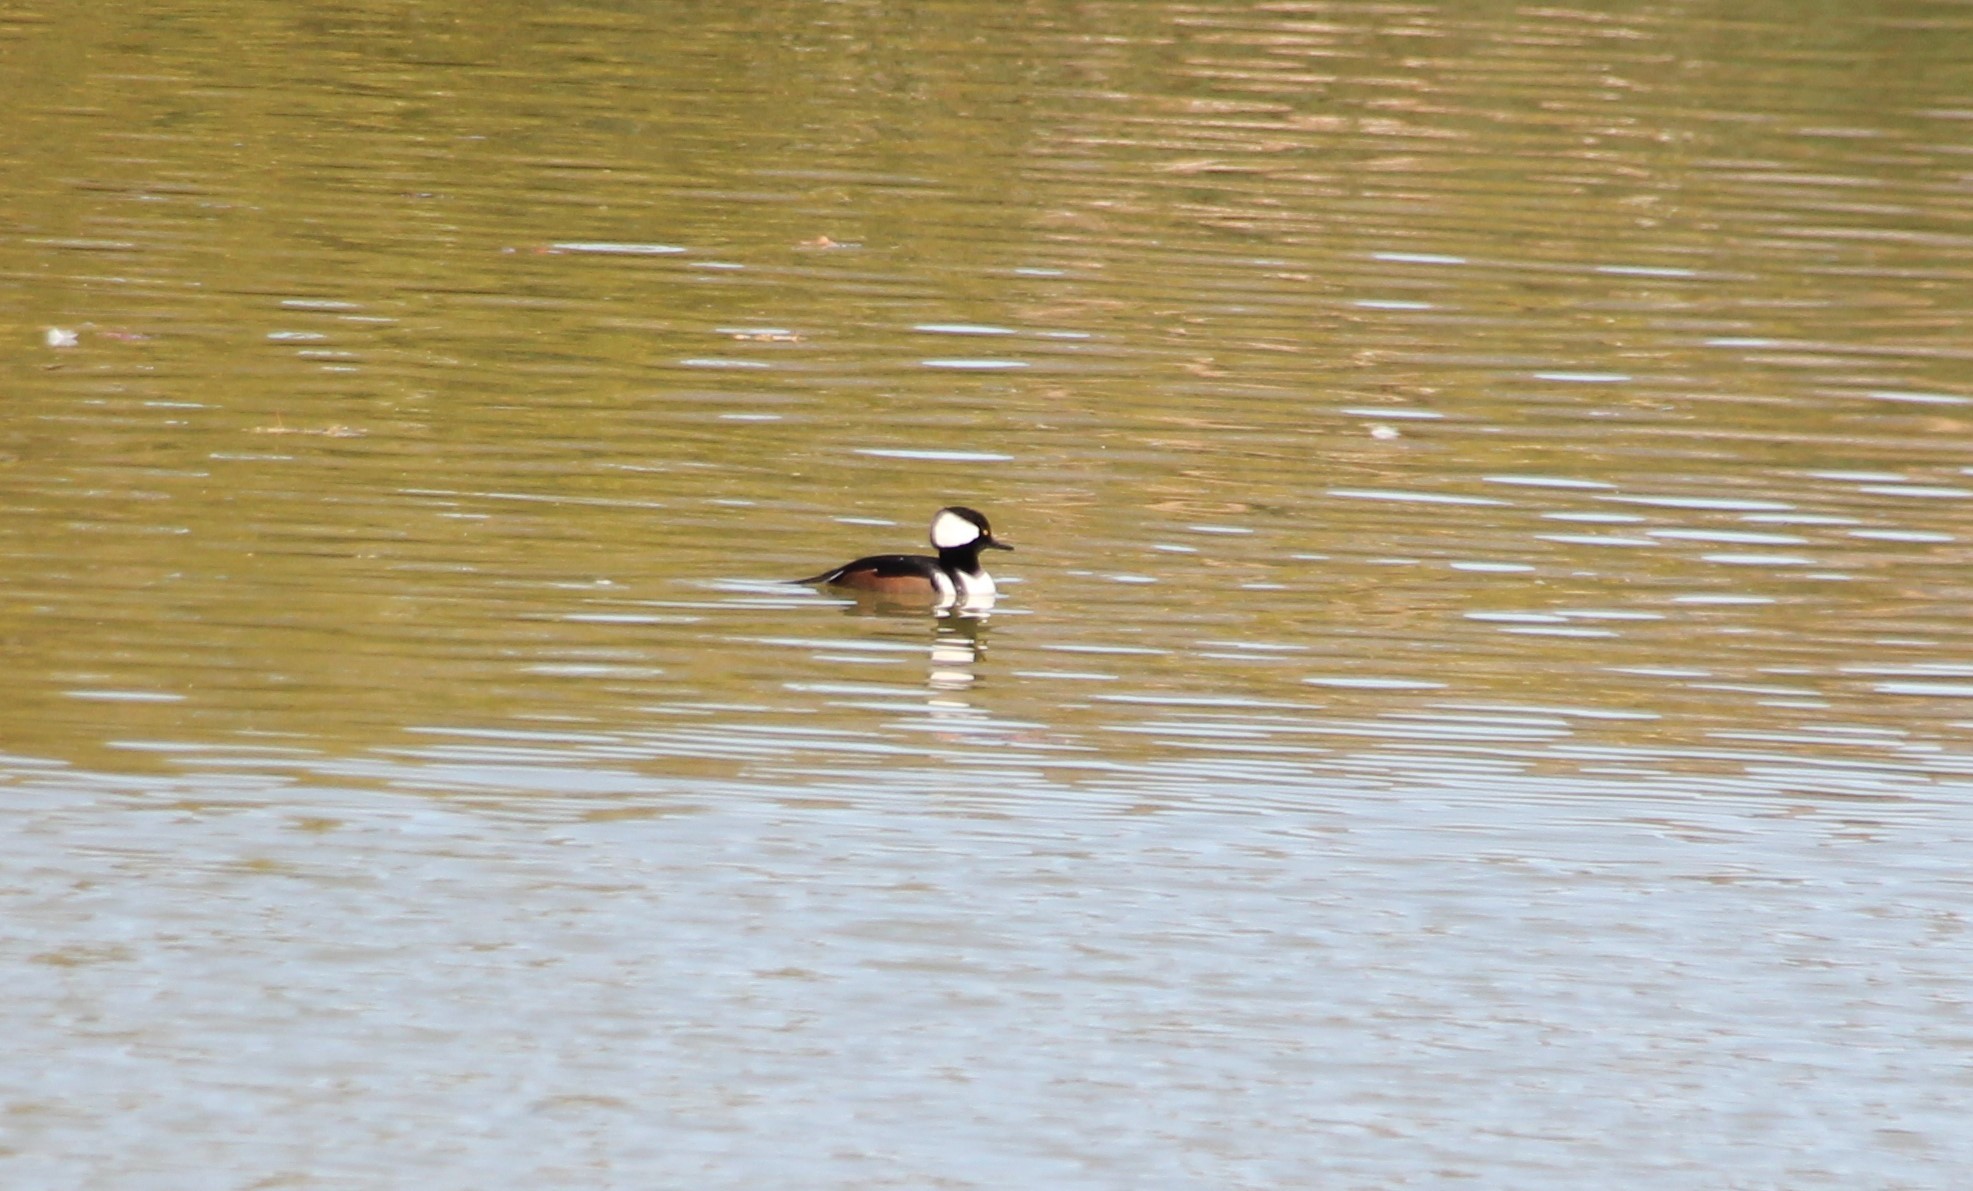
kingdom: Animalia
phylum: Chordata
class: Aves
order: Anseriformes
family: Anatidae
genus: Lophodytes
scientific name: Lophodytes cucullatus
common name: Hooded merganser
